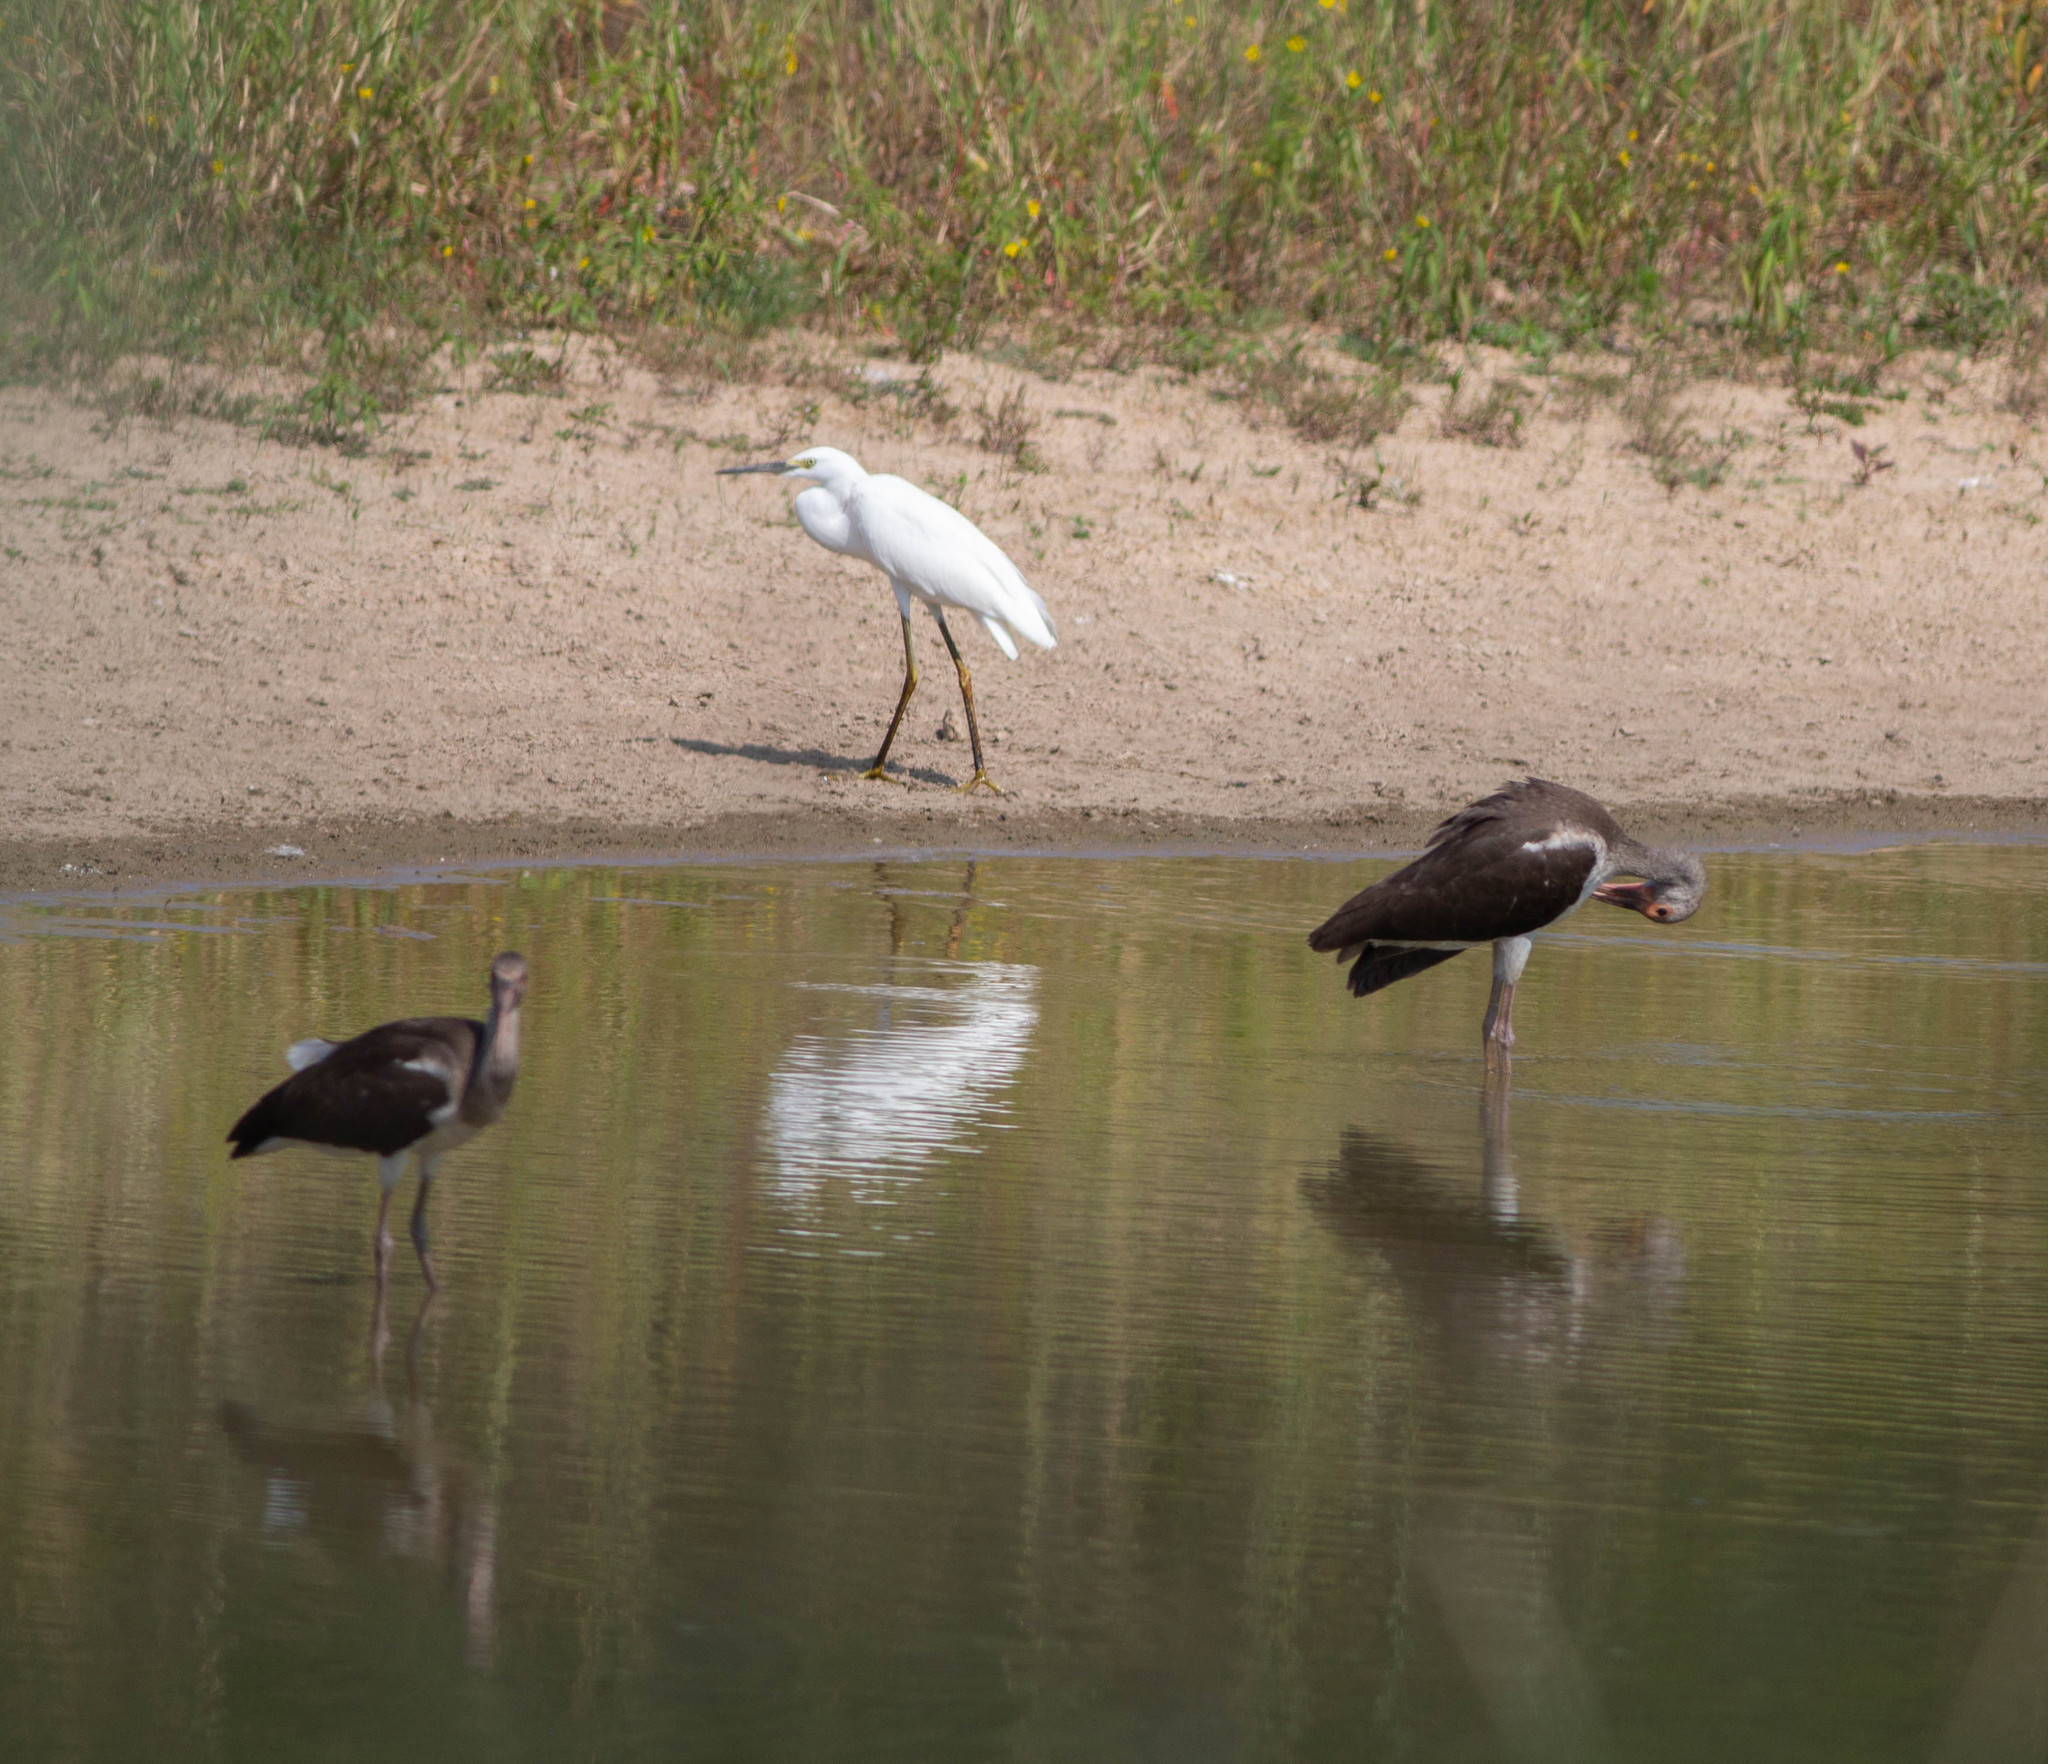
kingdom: Animalia
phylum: Chordata
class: Aves
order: Pelecaniformes
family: Threskiornithidae
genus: Eudocimus
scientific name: Eudocimus albus
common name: White ibis
